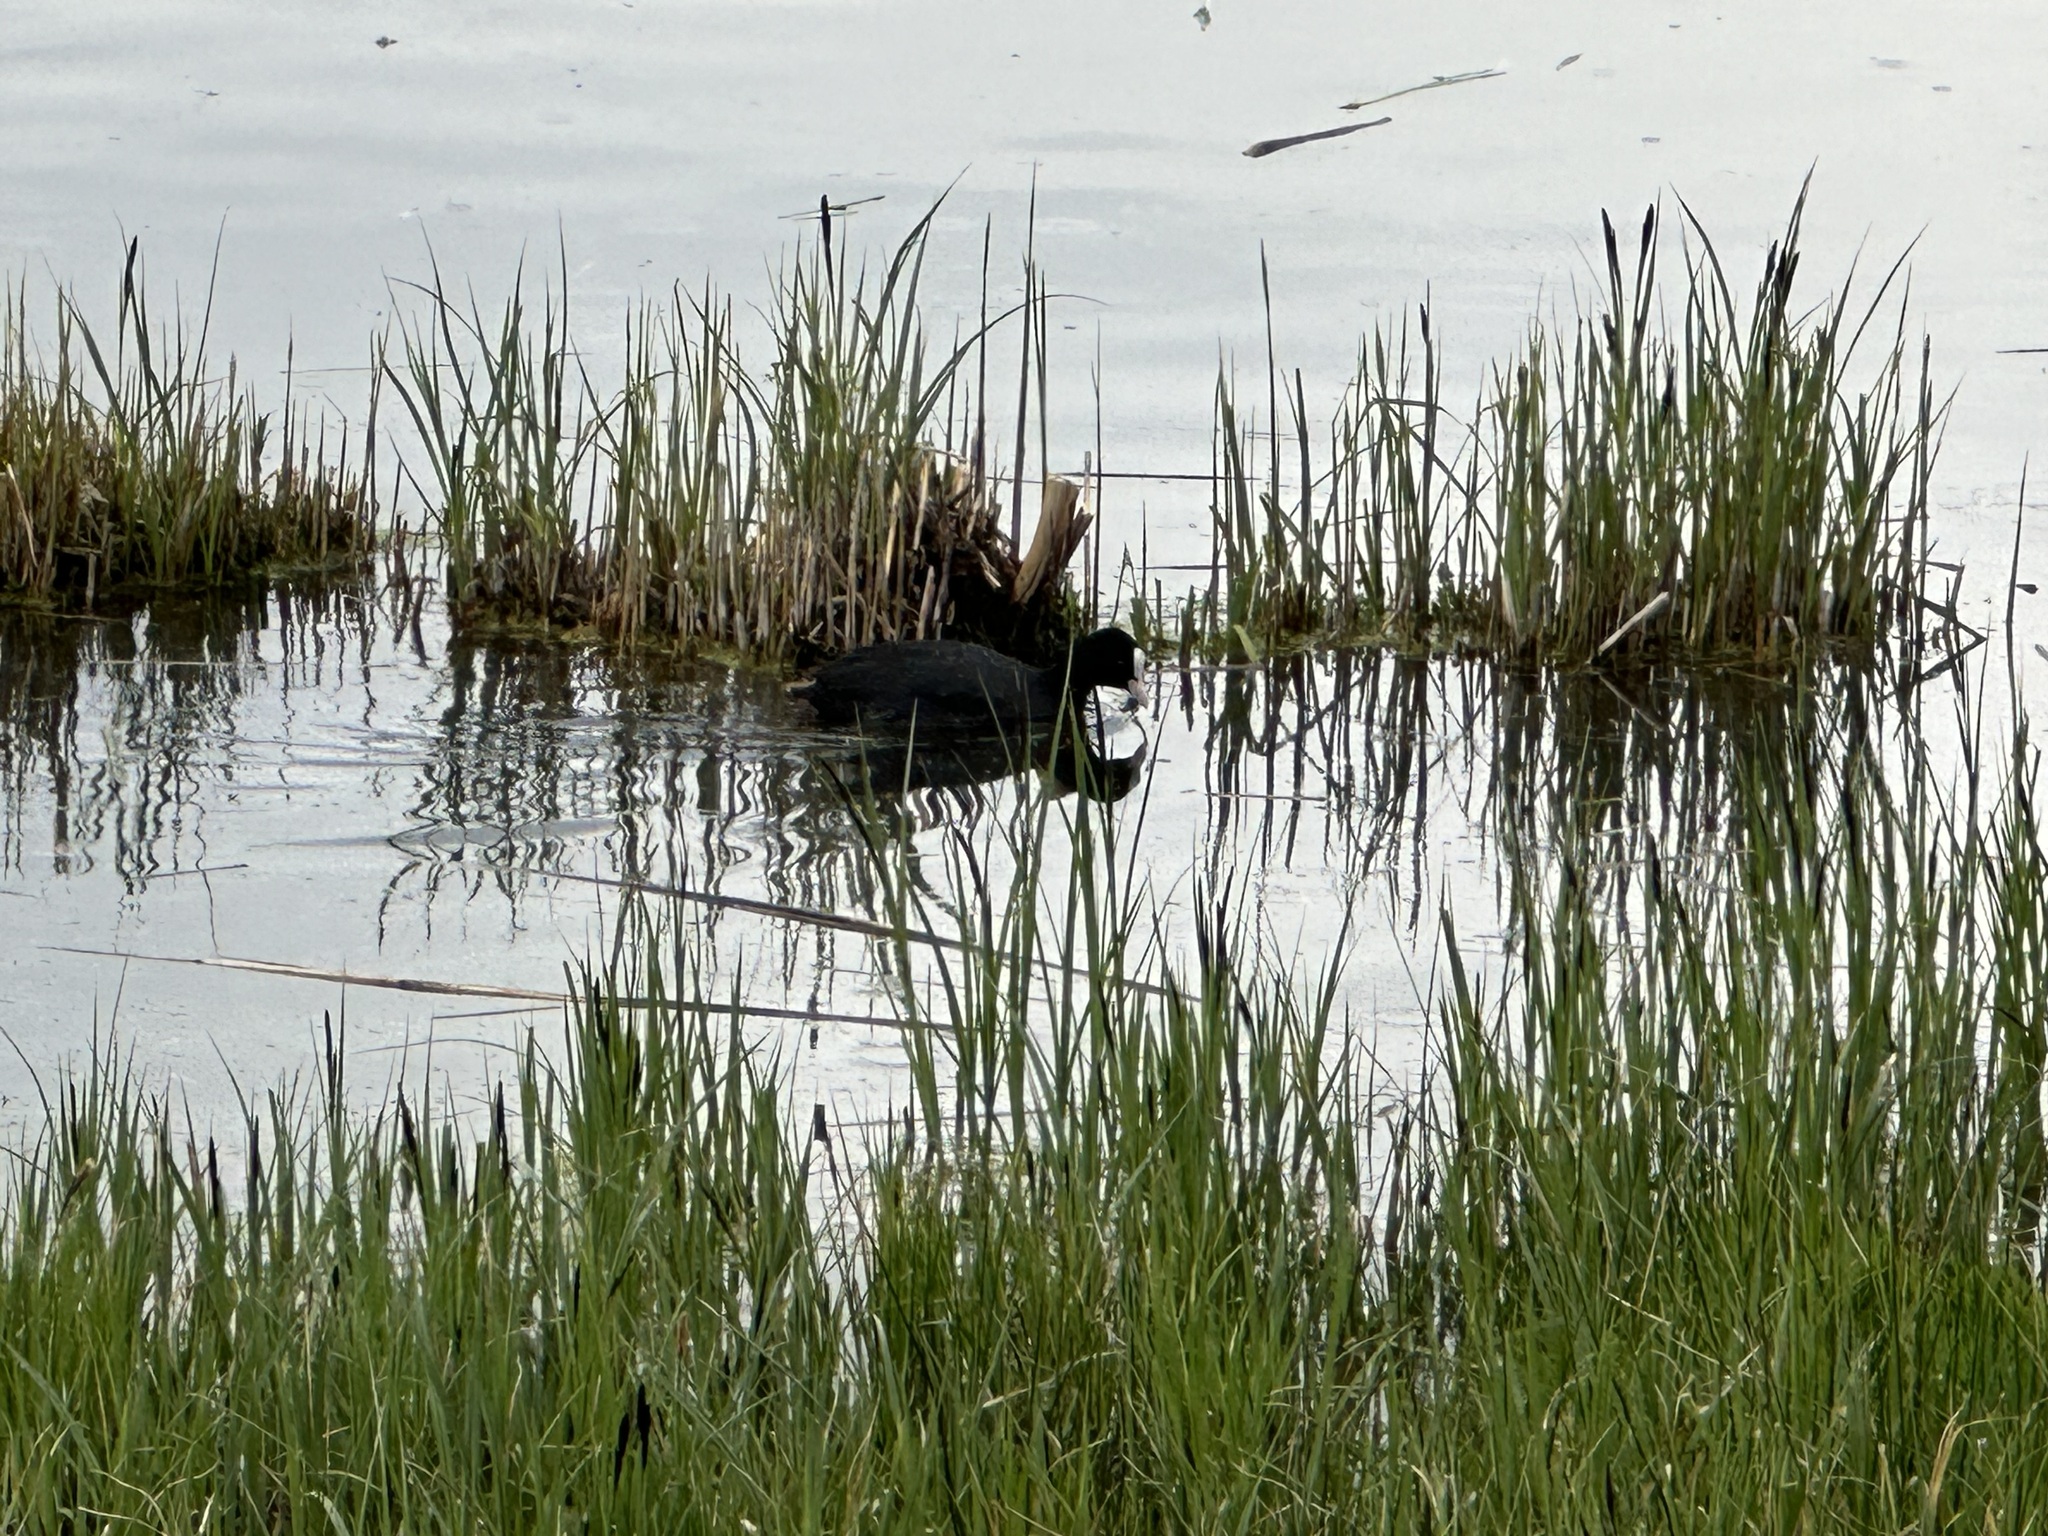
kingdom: Animalia
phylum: Chordata
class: Aves
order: Gruiformes
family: Rallidae
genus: Fulica
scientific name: Fulica atra
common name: Eurasian coot
